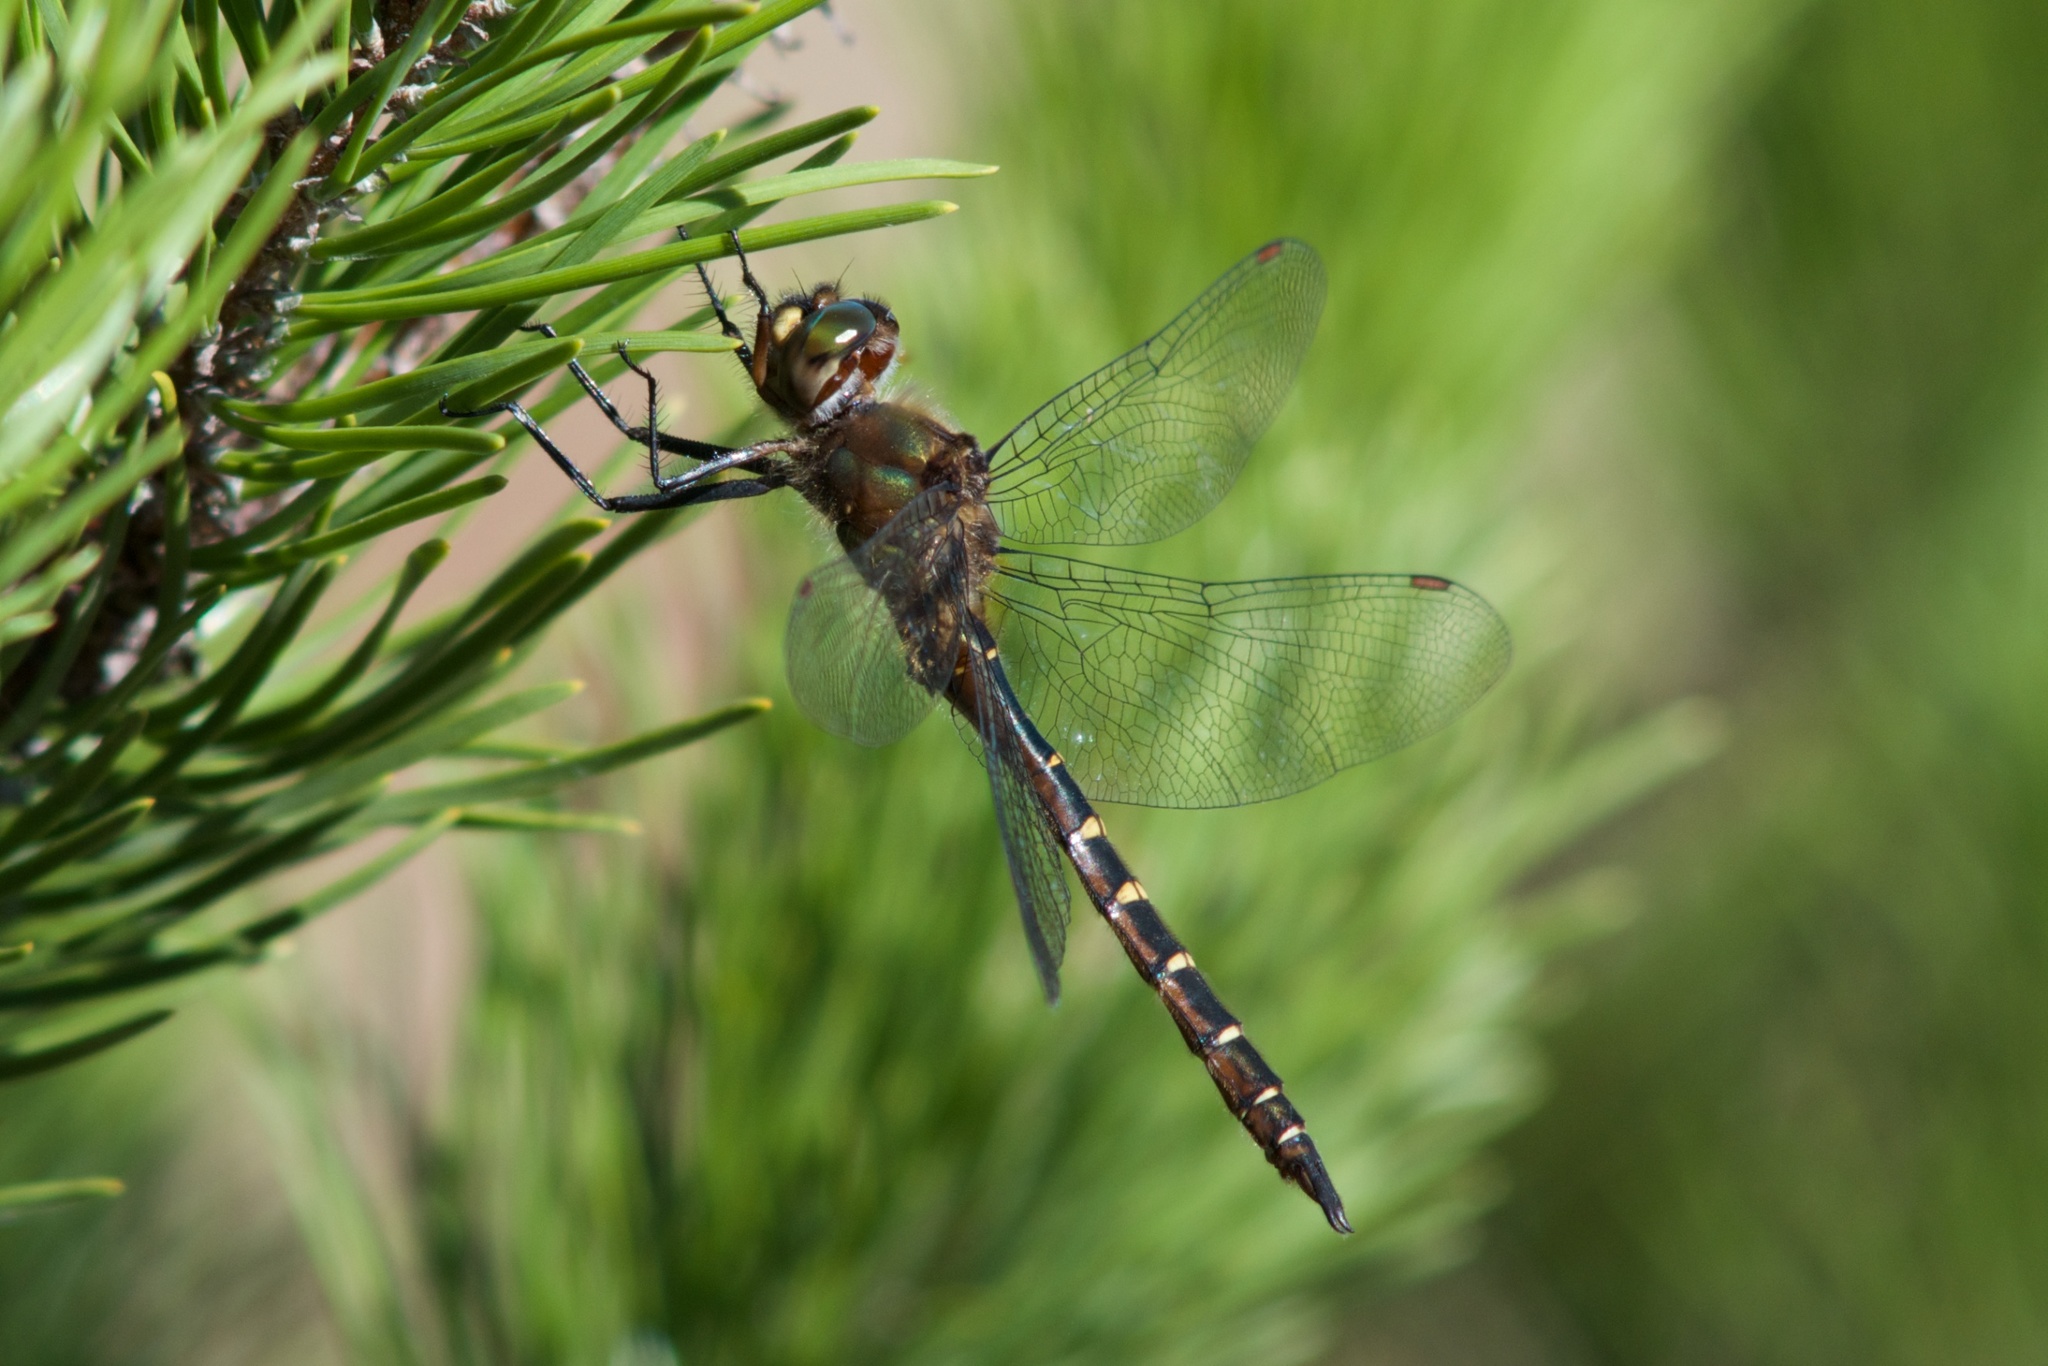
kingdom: Animalia
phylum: Arthropoda
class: Insecta
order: Odonata
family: Corduliidae
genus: Procordulia
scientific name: Procordulia smithii
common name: Ranger dragonfly
